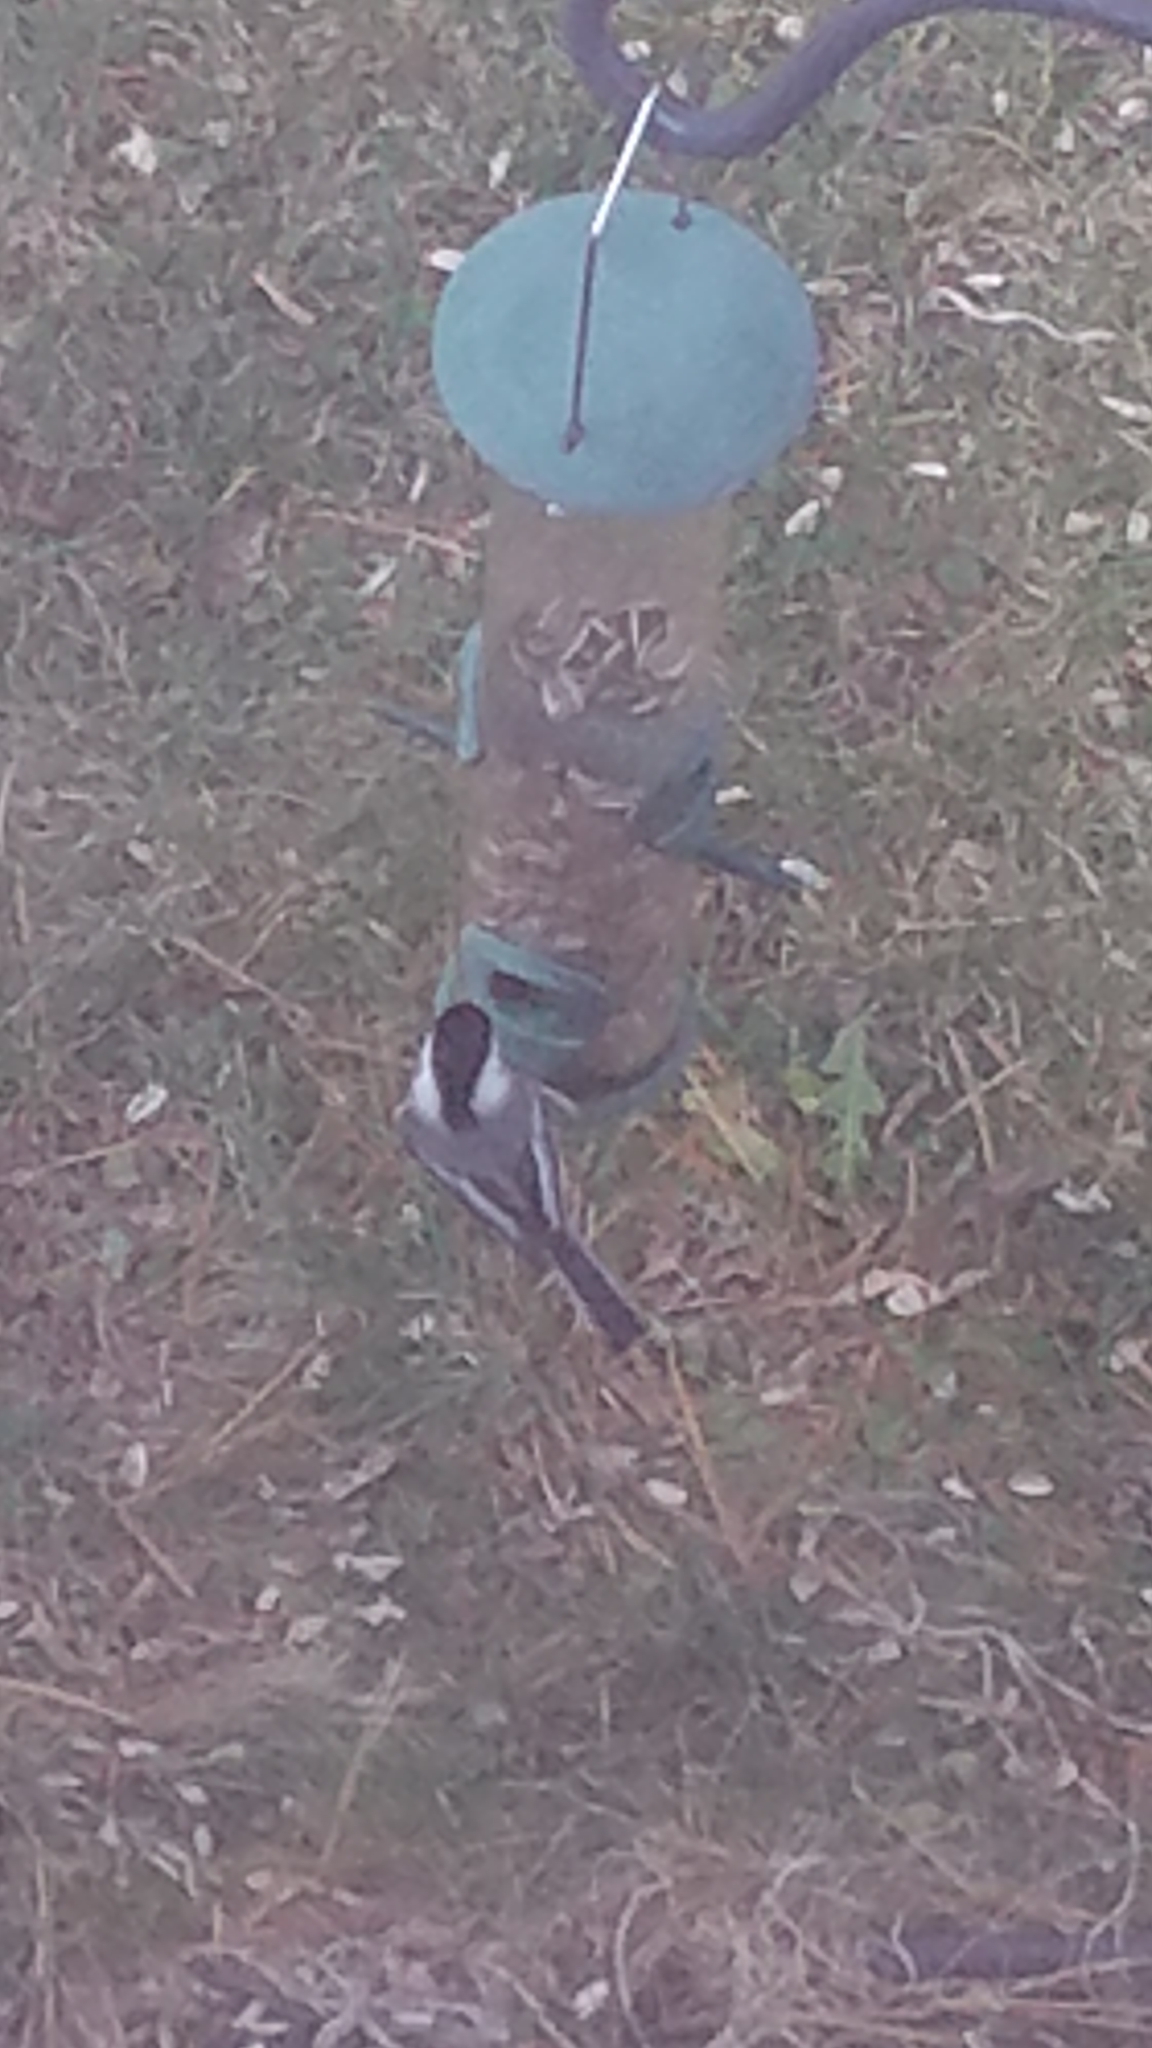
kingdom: Animalia
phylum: Chordata
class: Aves
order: Passeriformes
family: Paridae
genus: Poecile
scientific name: Poecile atricapillus
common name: Black-capped chickadee
